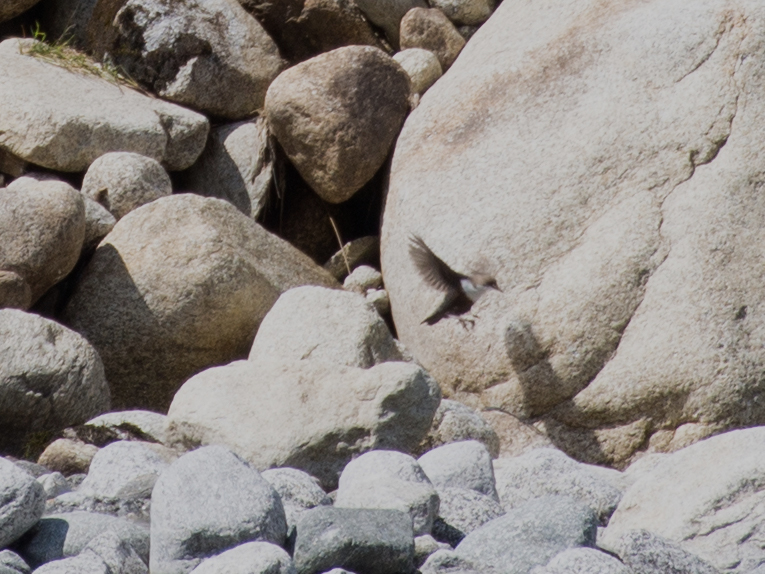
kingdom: Animalia
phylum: Chordata
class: Aves
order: Passeriformes
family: Cinclidae
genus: Cinclus
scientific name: Cinclus cinclus
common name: White-throated dipper
